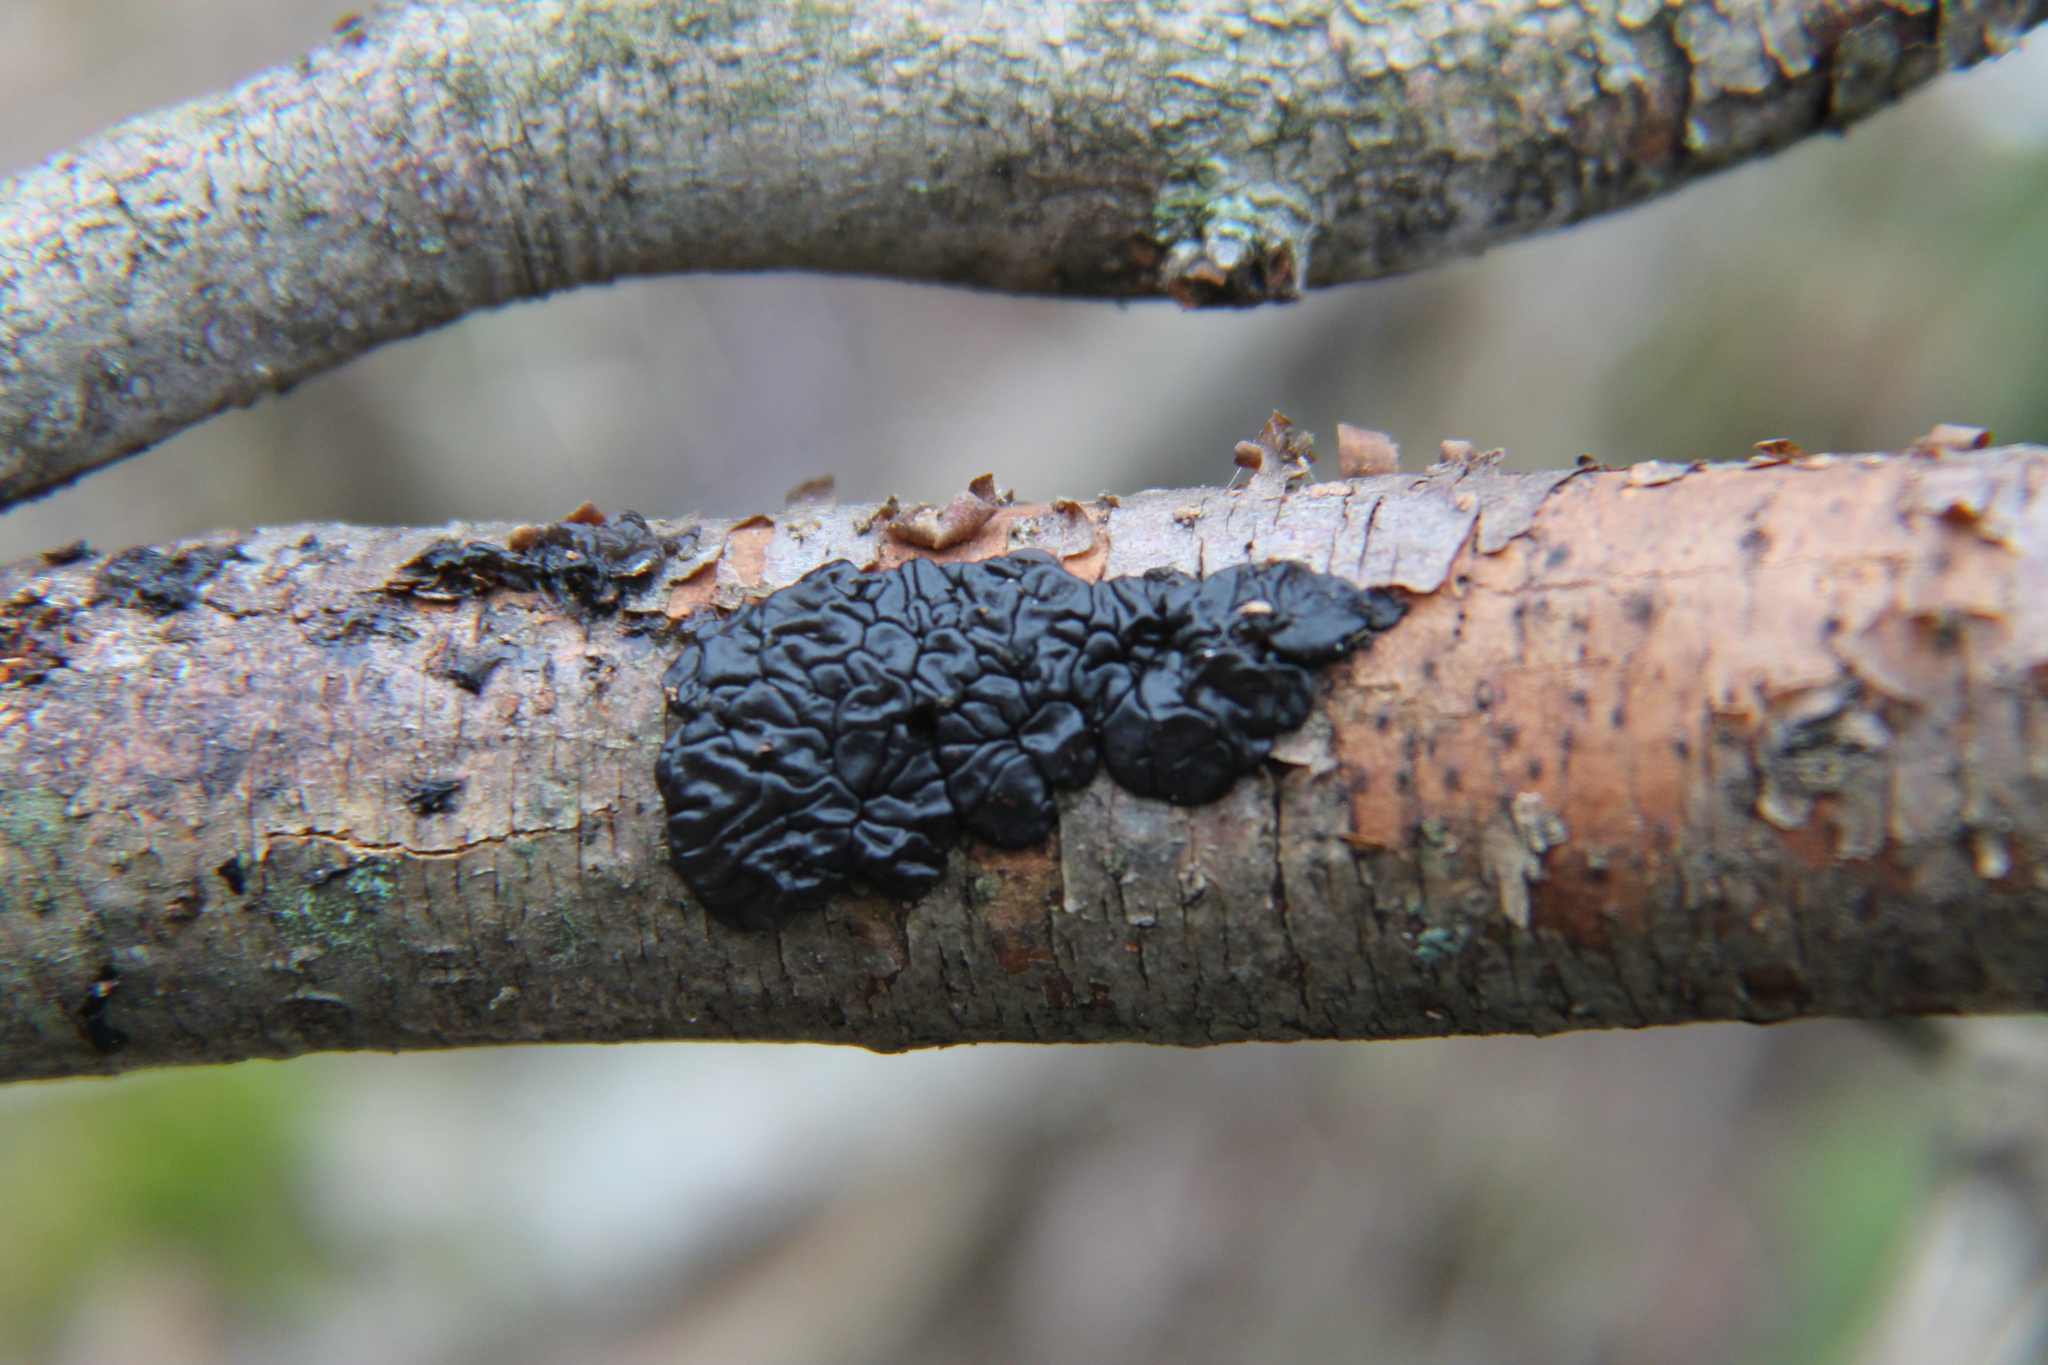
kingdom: Fungi
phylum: Basidiomycota
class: Agaricomycetes
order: Auriculariales
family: Auriculariaceae
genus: Exidia
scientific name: Exidia nigricans
